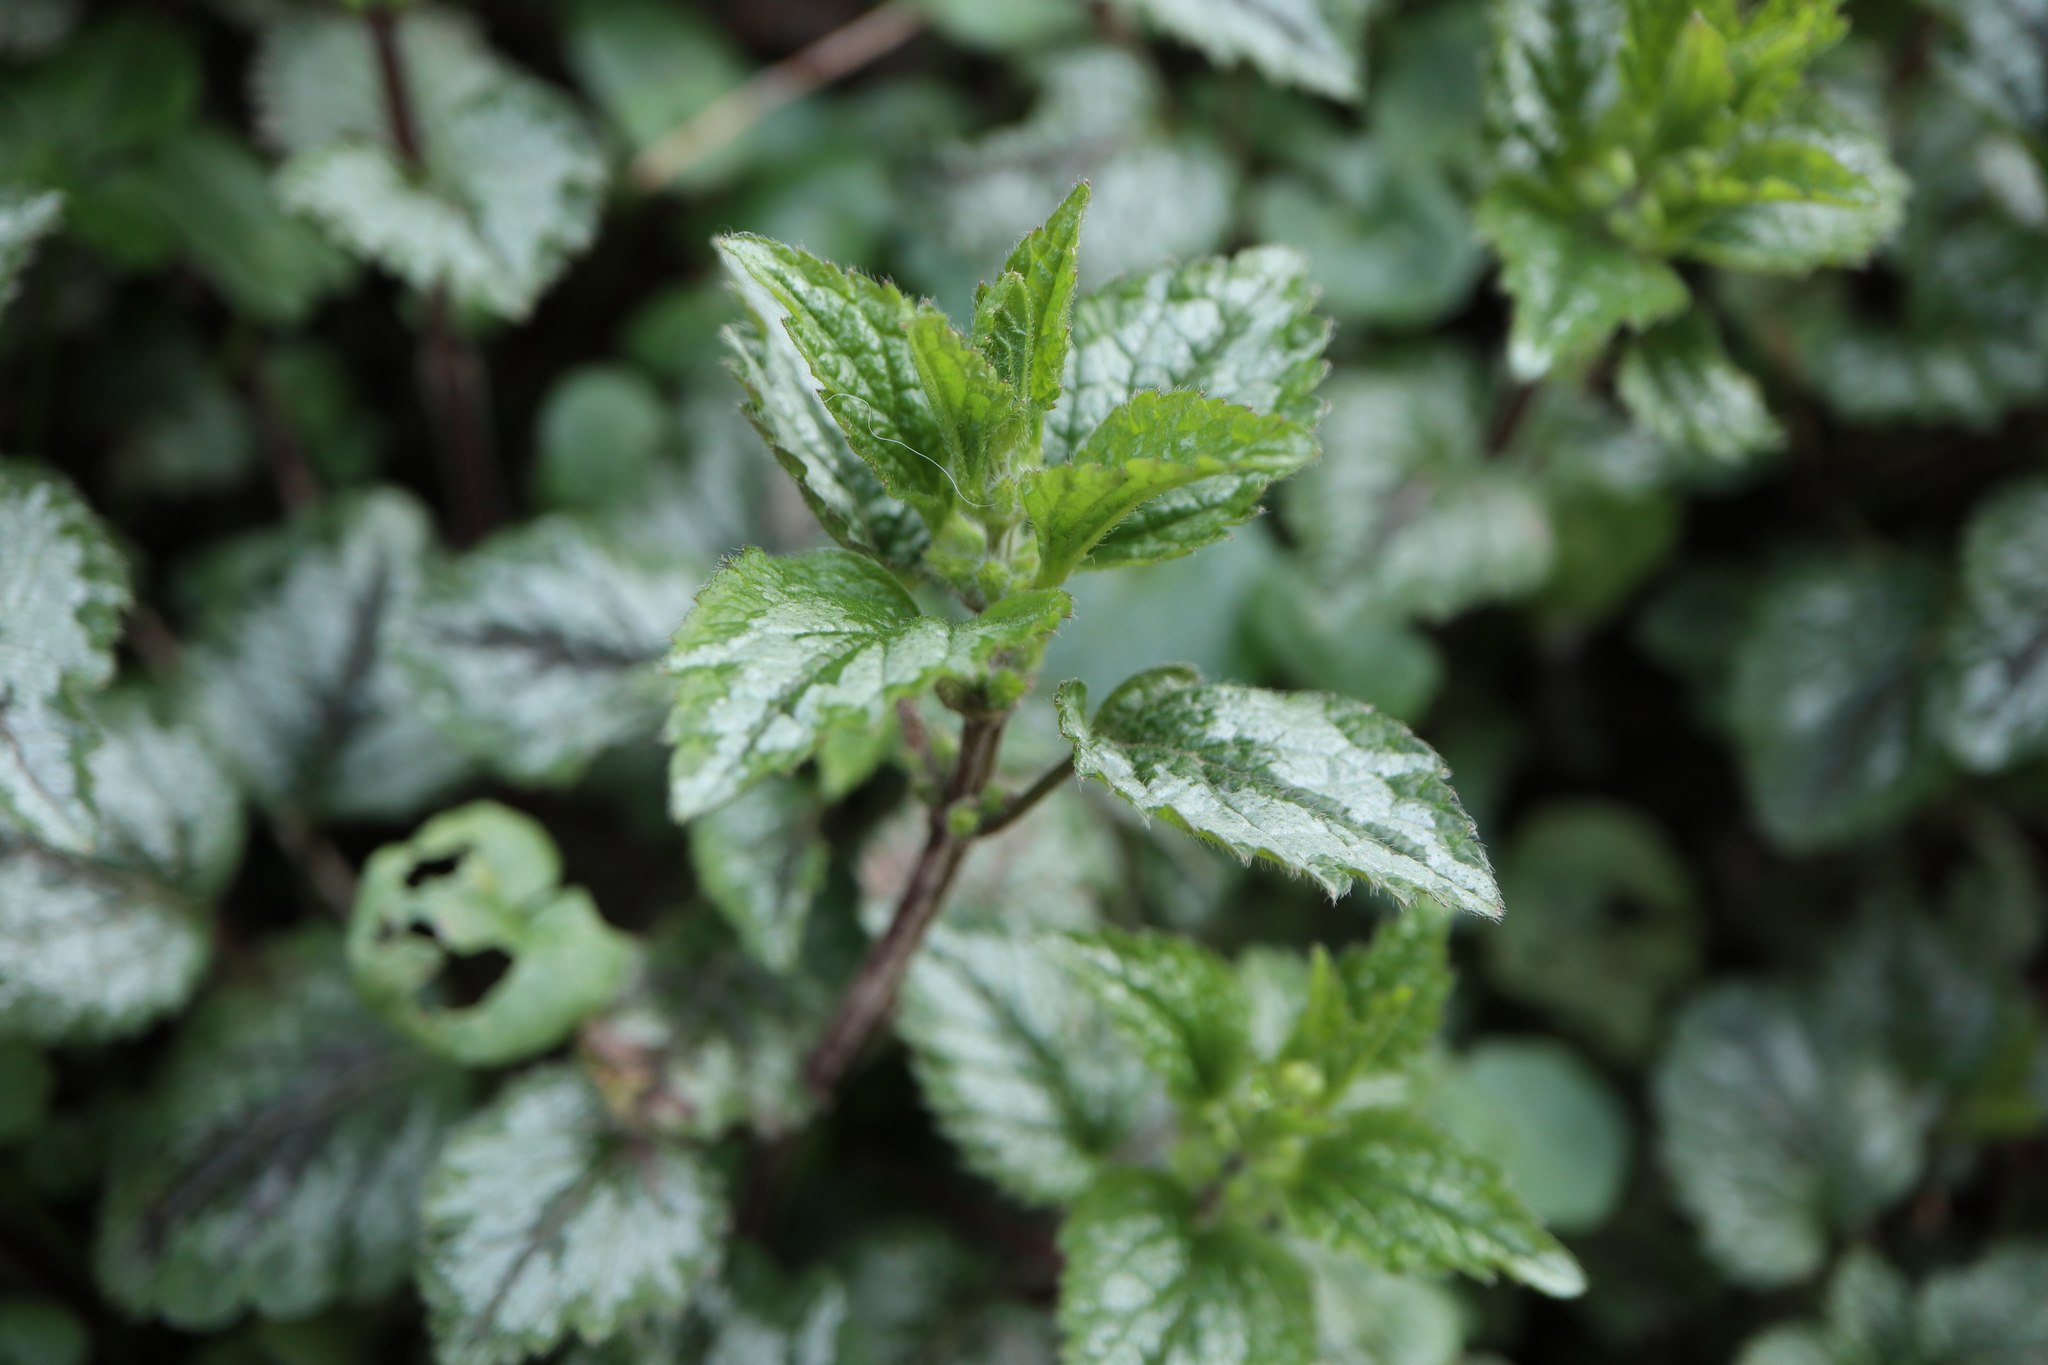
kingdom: Plantae
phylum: Tracheophyta
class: Magnoliopsida
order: Lamiales
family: Lamiaceae
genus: Lamium
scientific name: Lamium galeobdolon
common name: Yellow archangel
